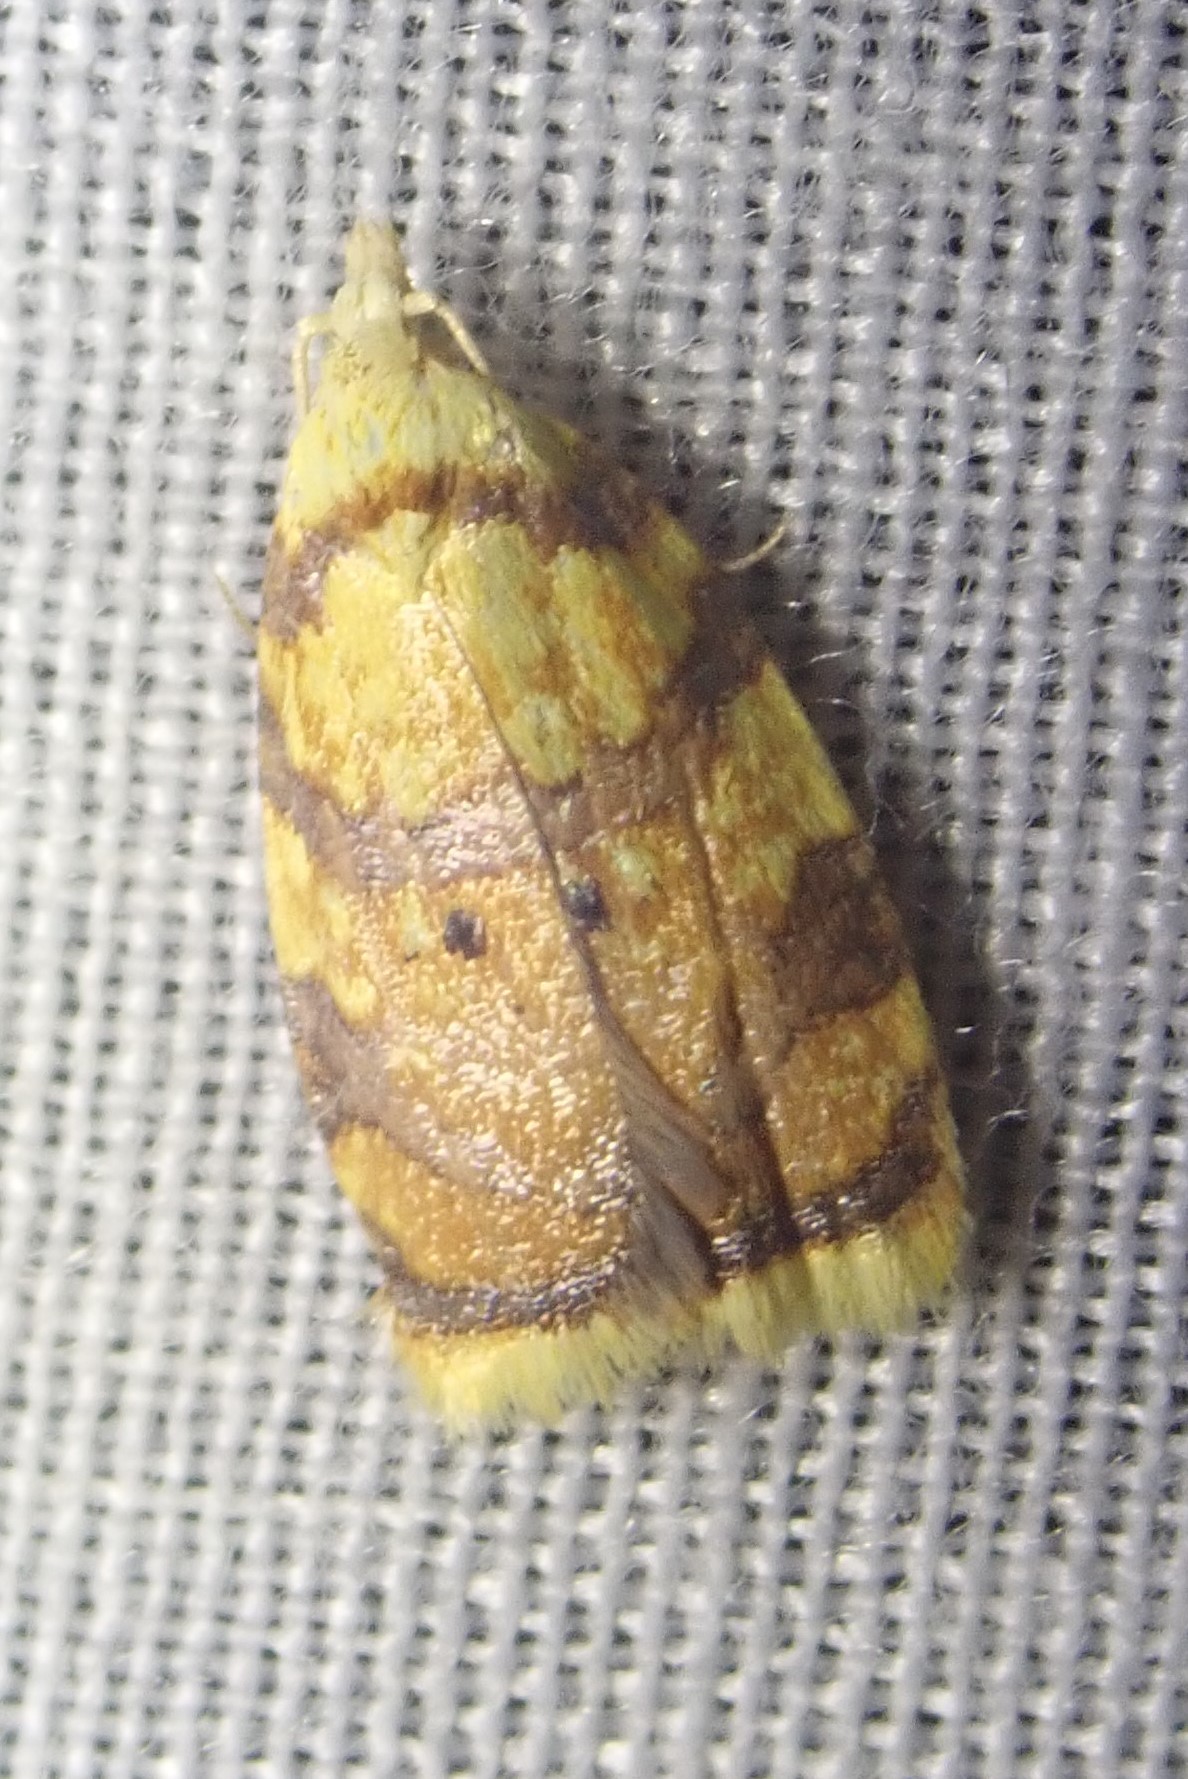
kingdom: Animalia
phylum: Arthropoda
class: Insecta
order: Lepidoptera
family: Tortricidae
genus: Acleris
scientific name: Acleris albicomana
